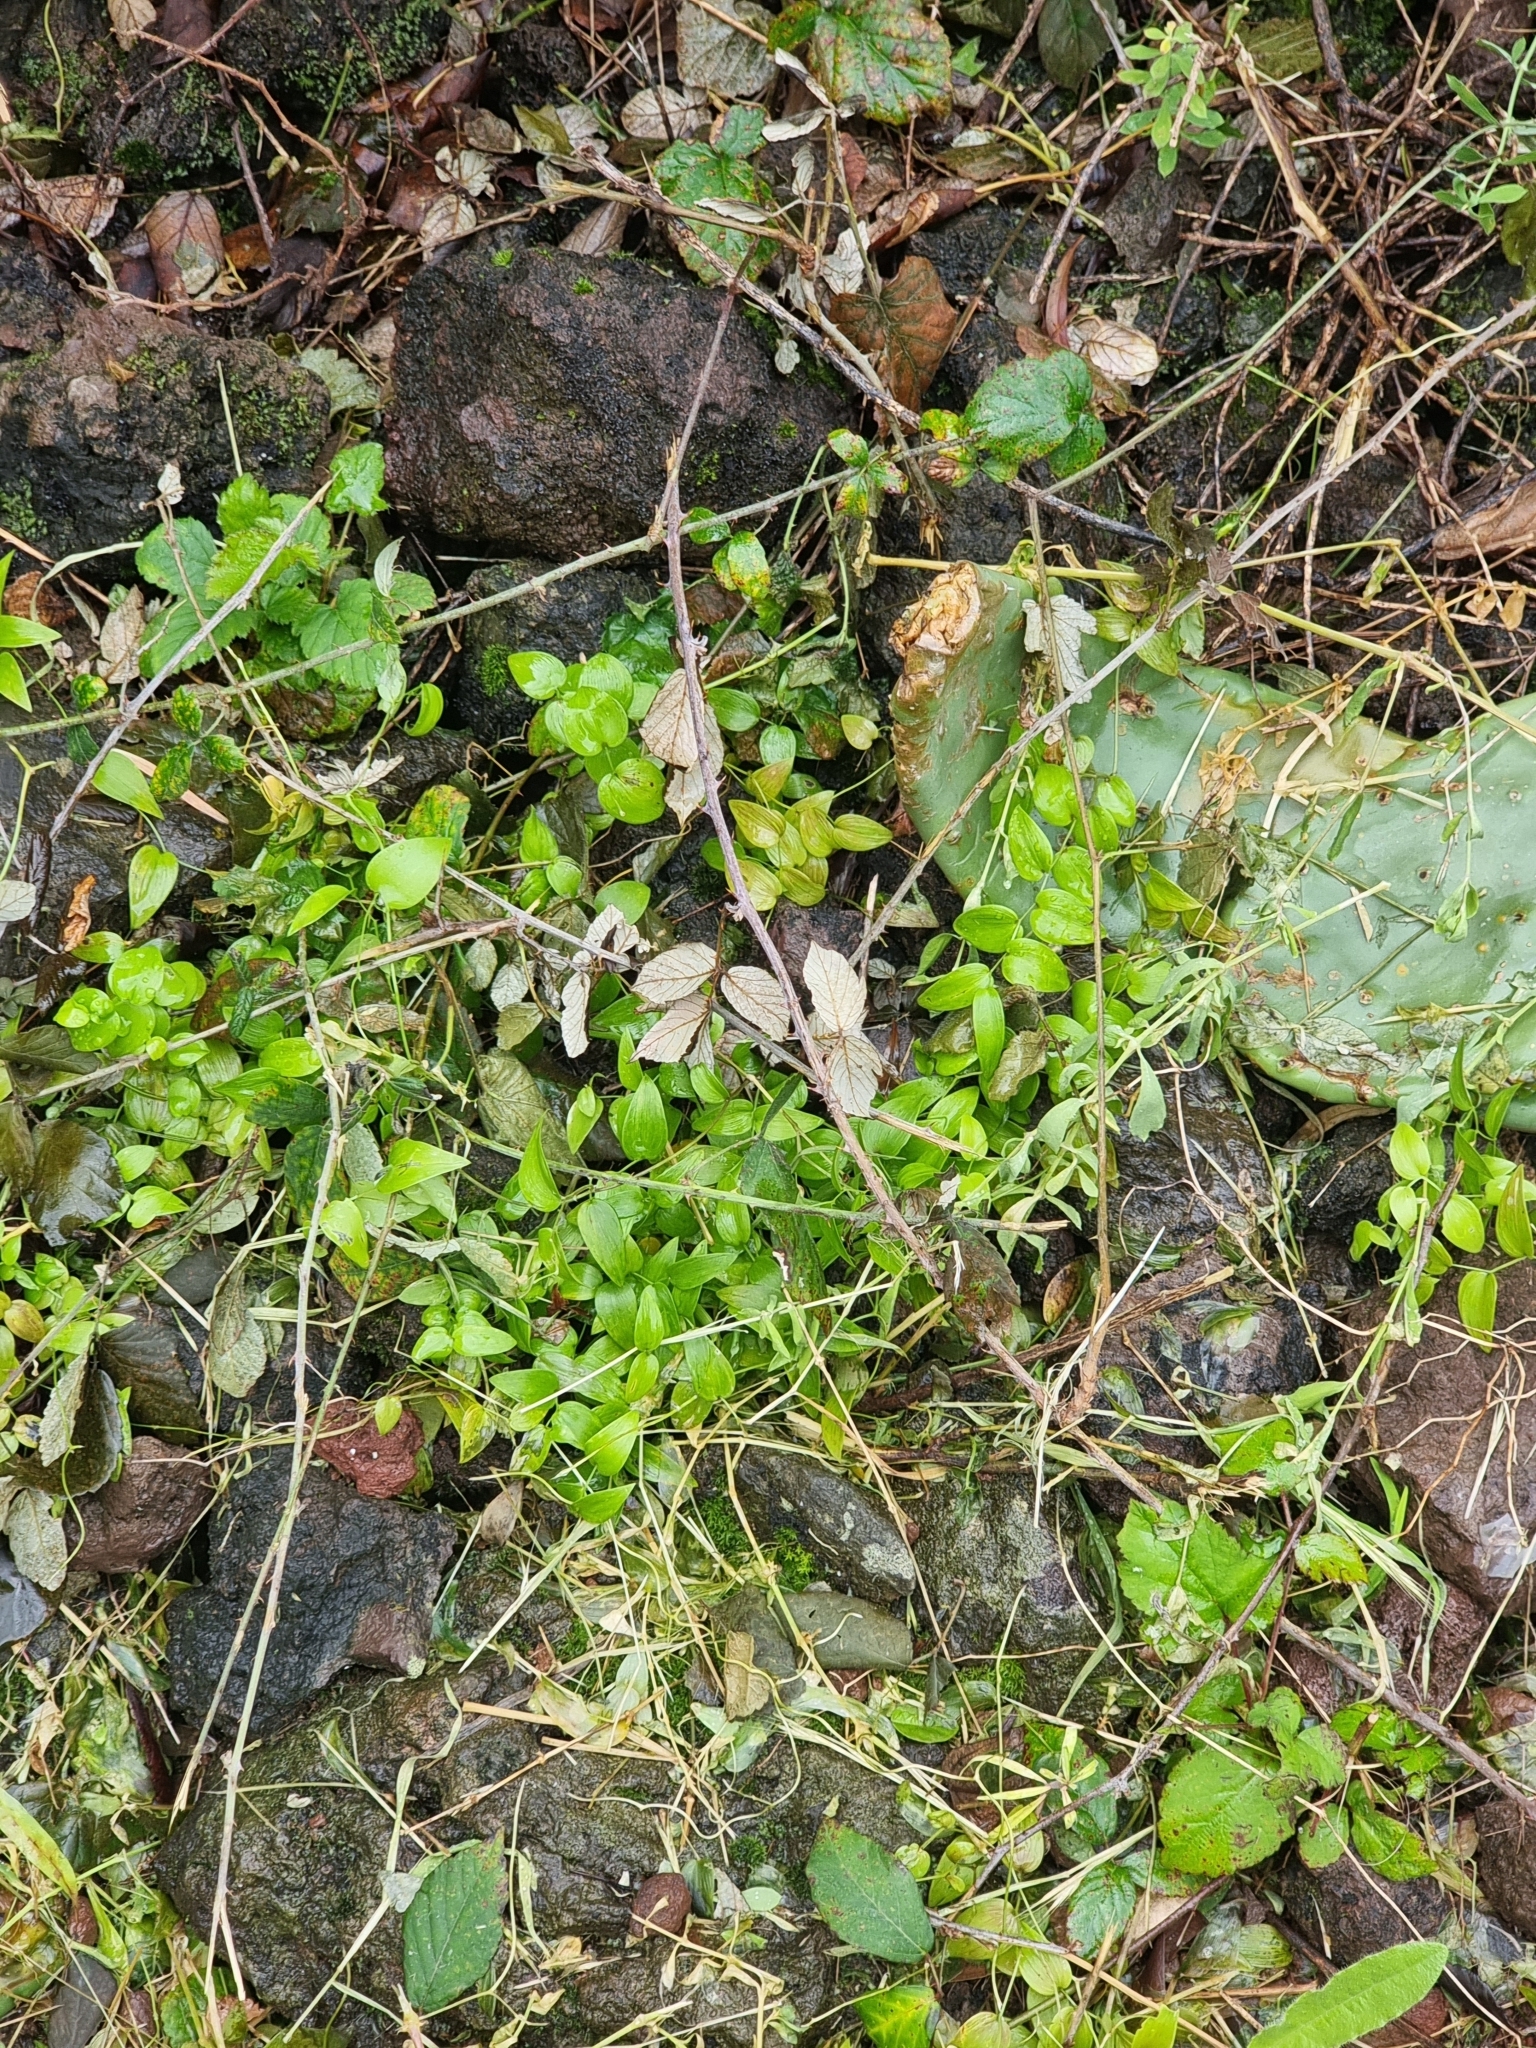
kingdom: Plantae
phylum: Tracheophyta
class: Liliopsida
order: Asparagales
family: Asparagaceae
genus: Asparagus
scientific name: Asparagus asparagoides
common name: African asparagus fern
